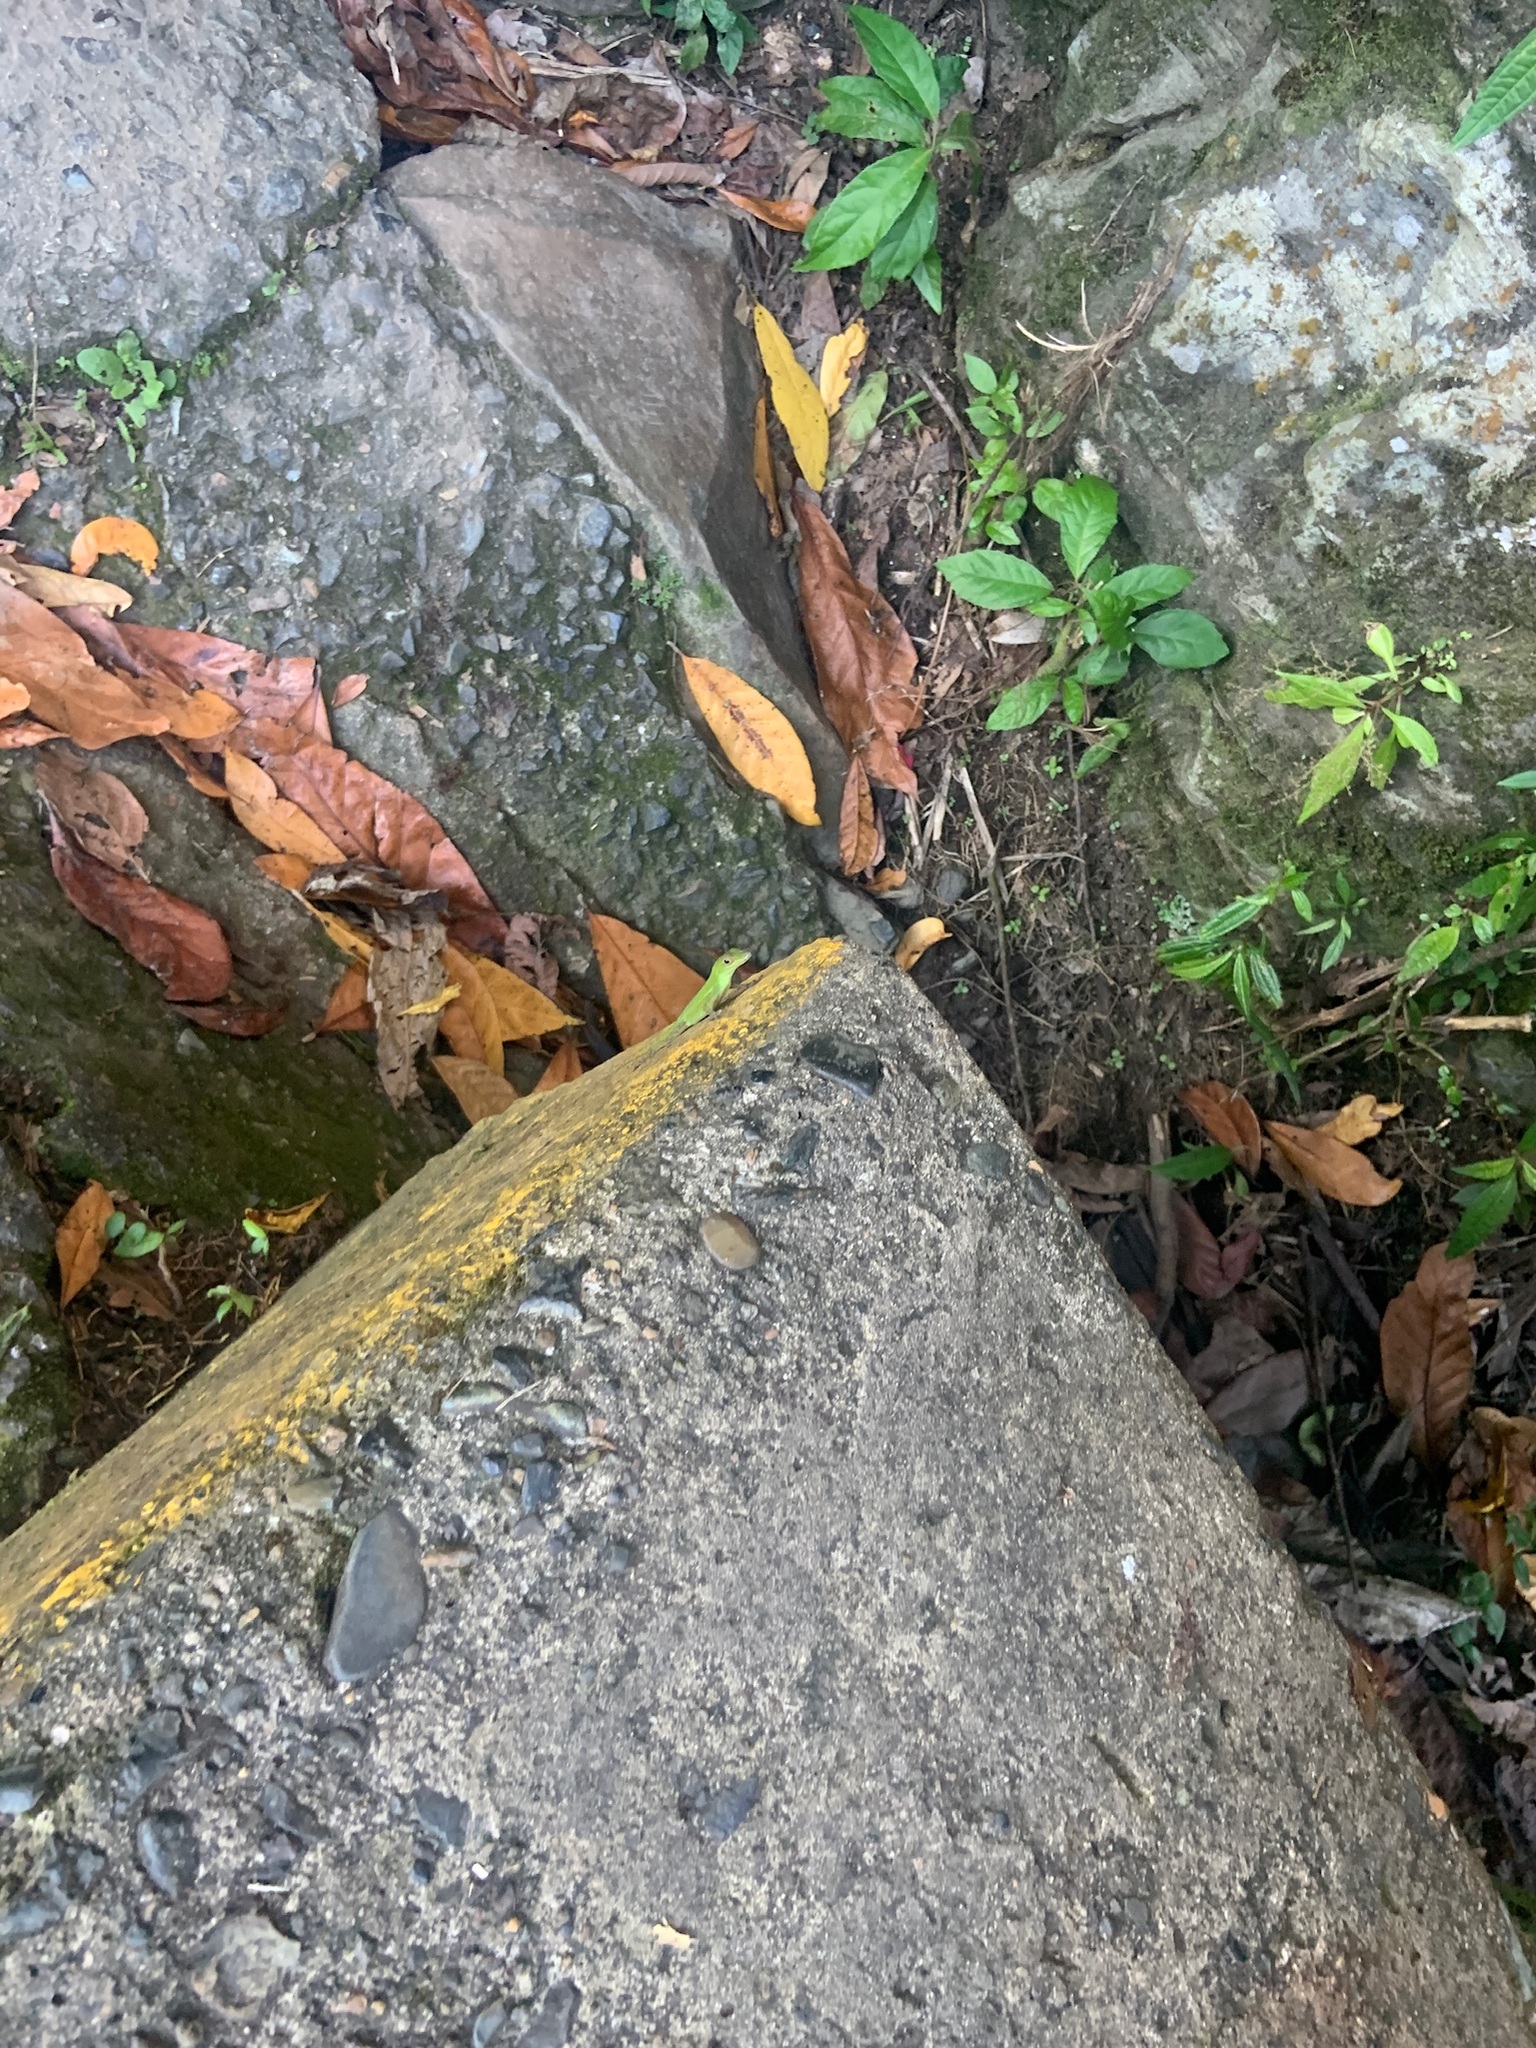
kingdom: Animalia
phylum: Chordata
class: Squamata
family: Dactyloidae
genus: Anolis
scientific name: Anolis evermanni
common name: Emerald anole
